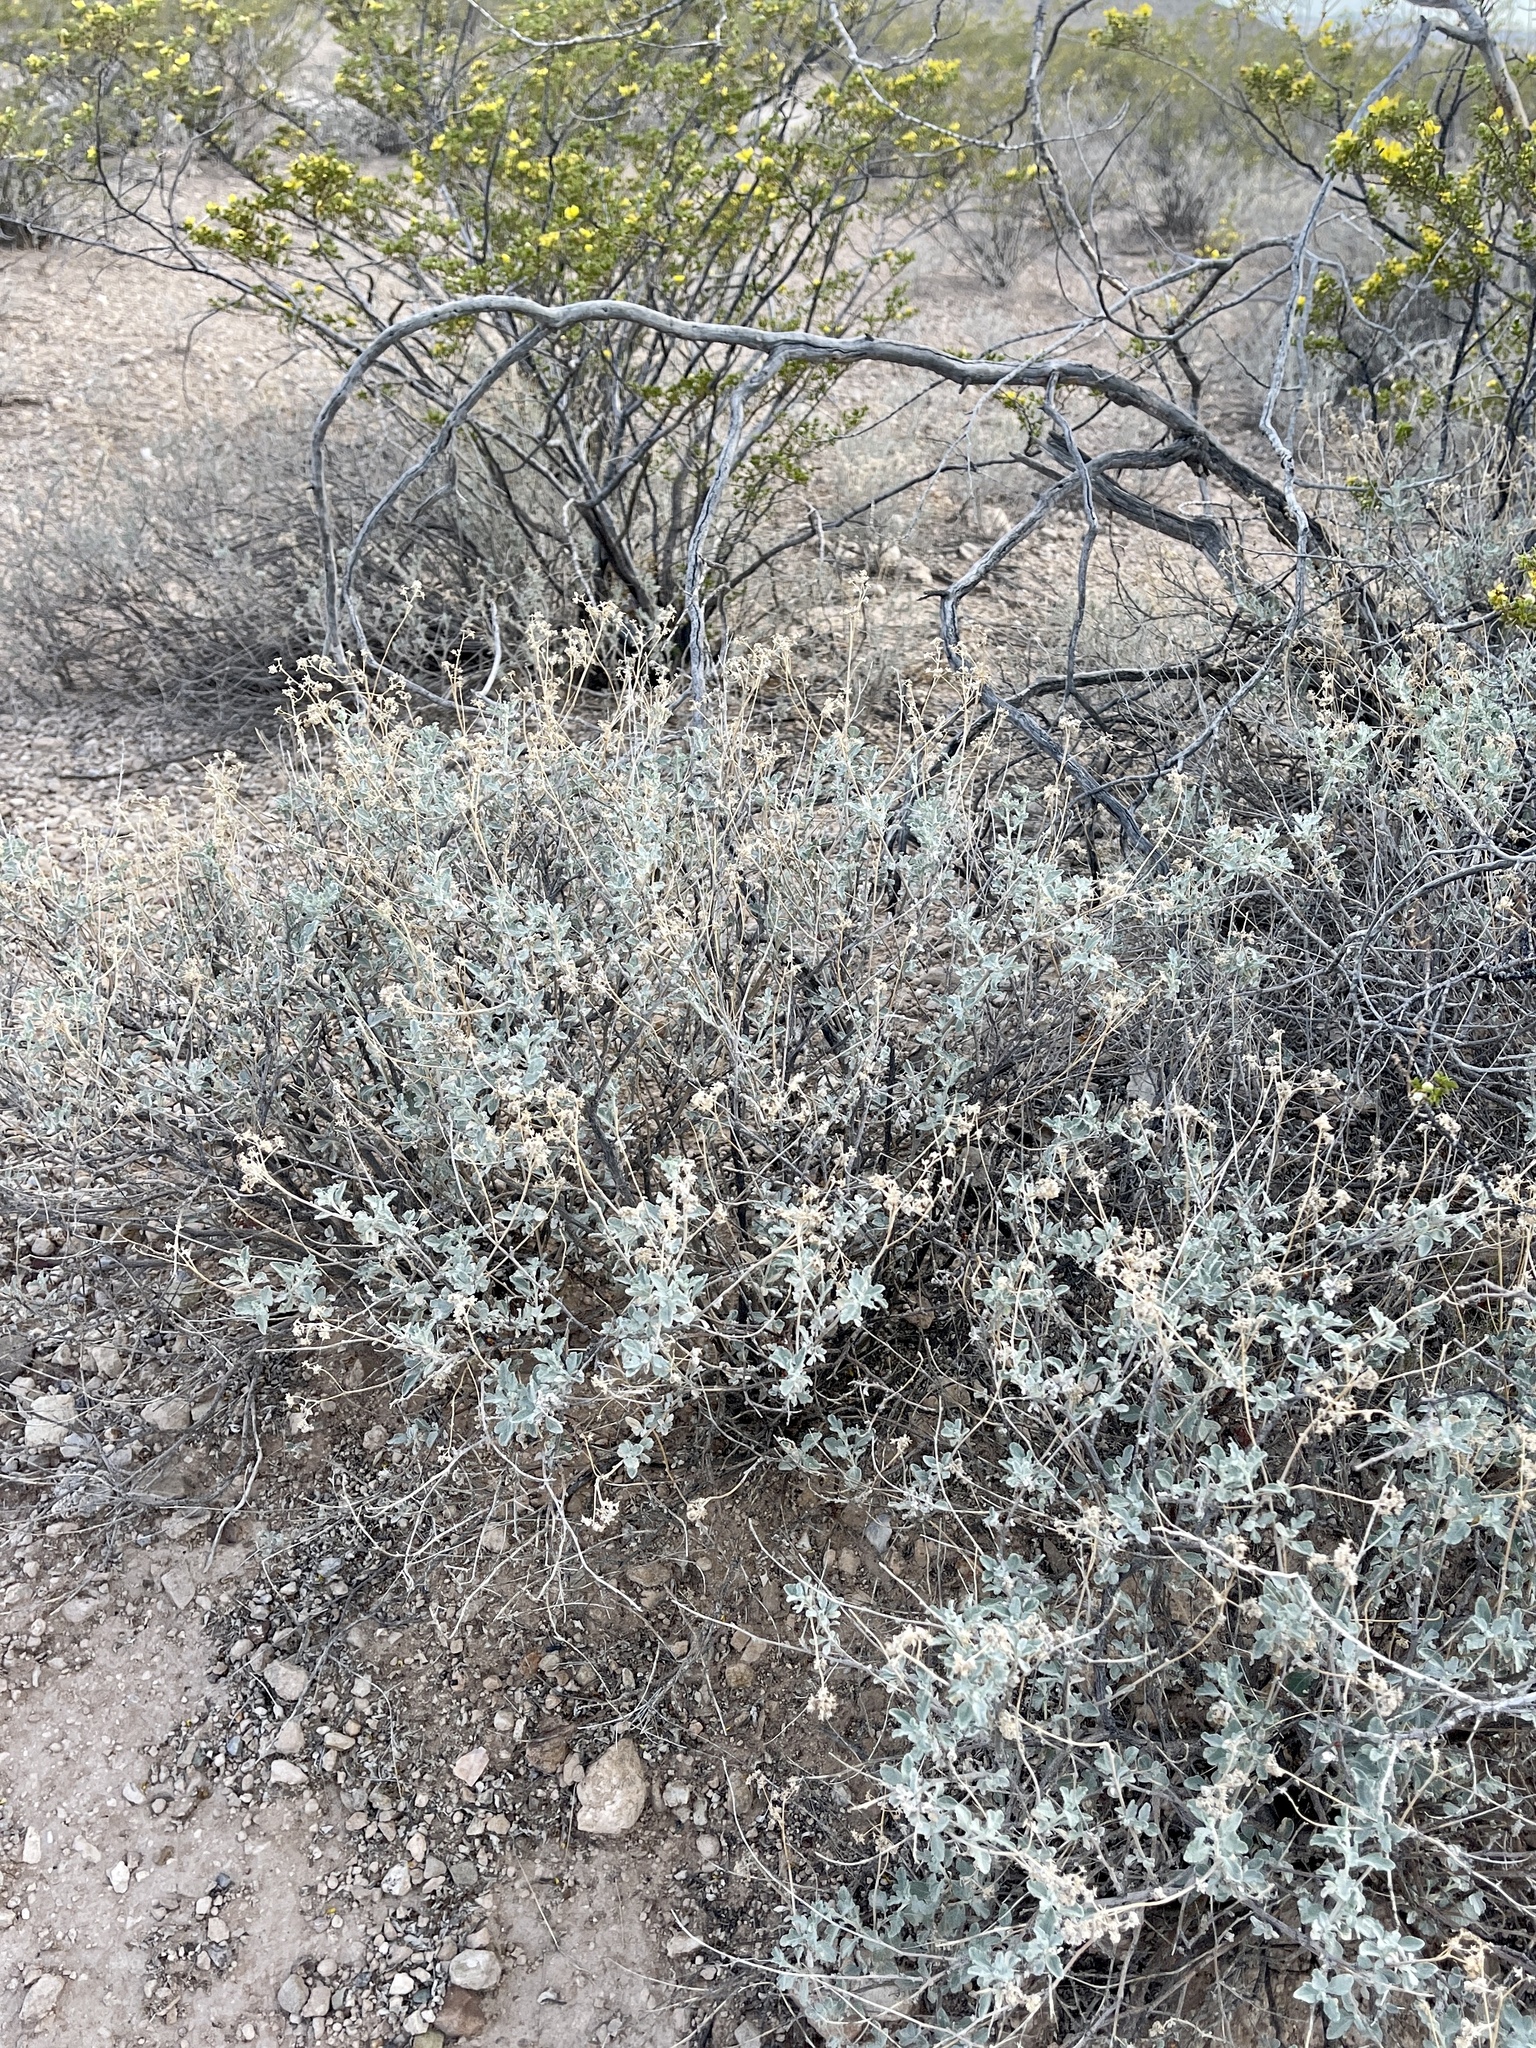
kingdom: Plantae
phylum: Tracheophyta
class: Magnoliopsida
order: Asterales
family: Asteraceae
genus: Parthenium
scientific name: Parthenium incanum
